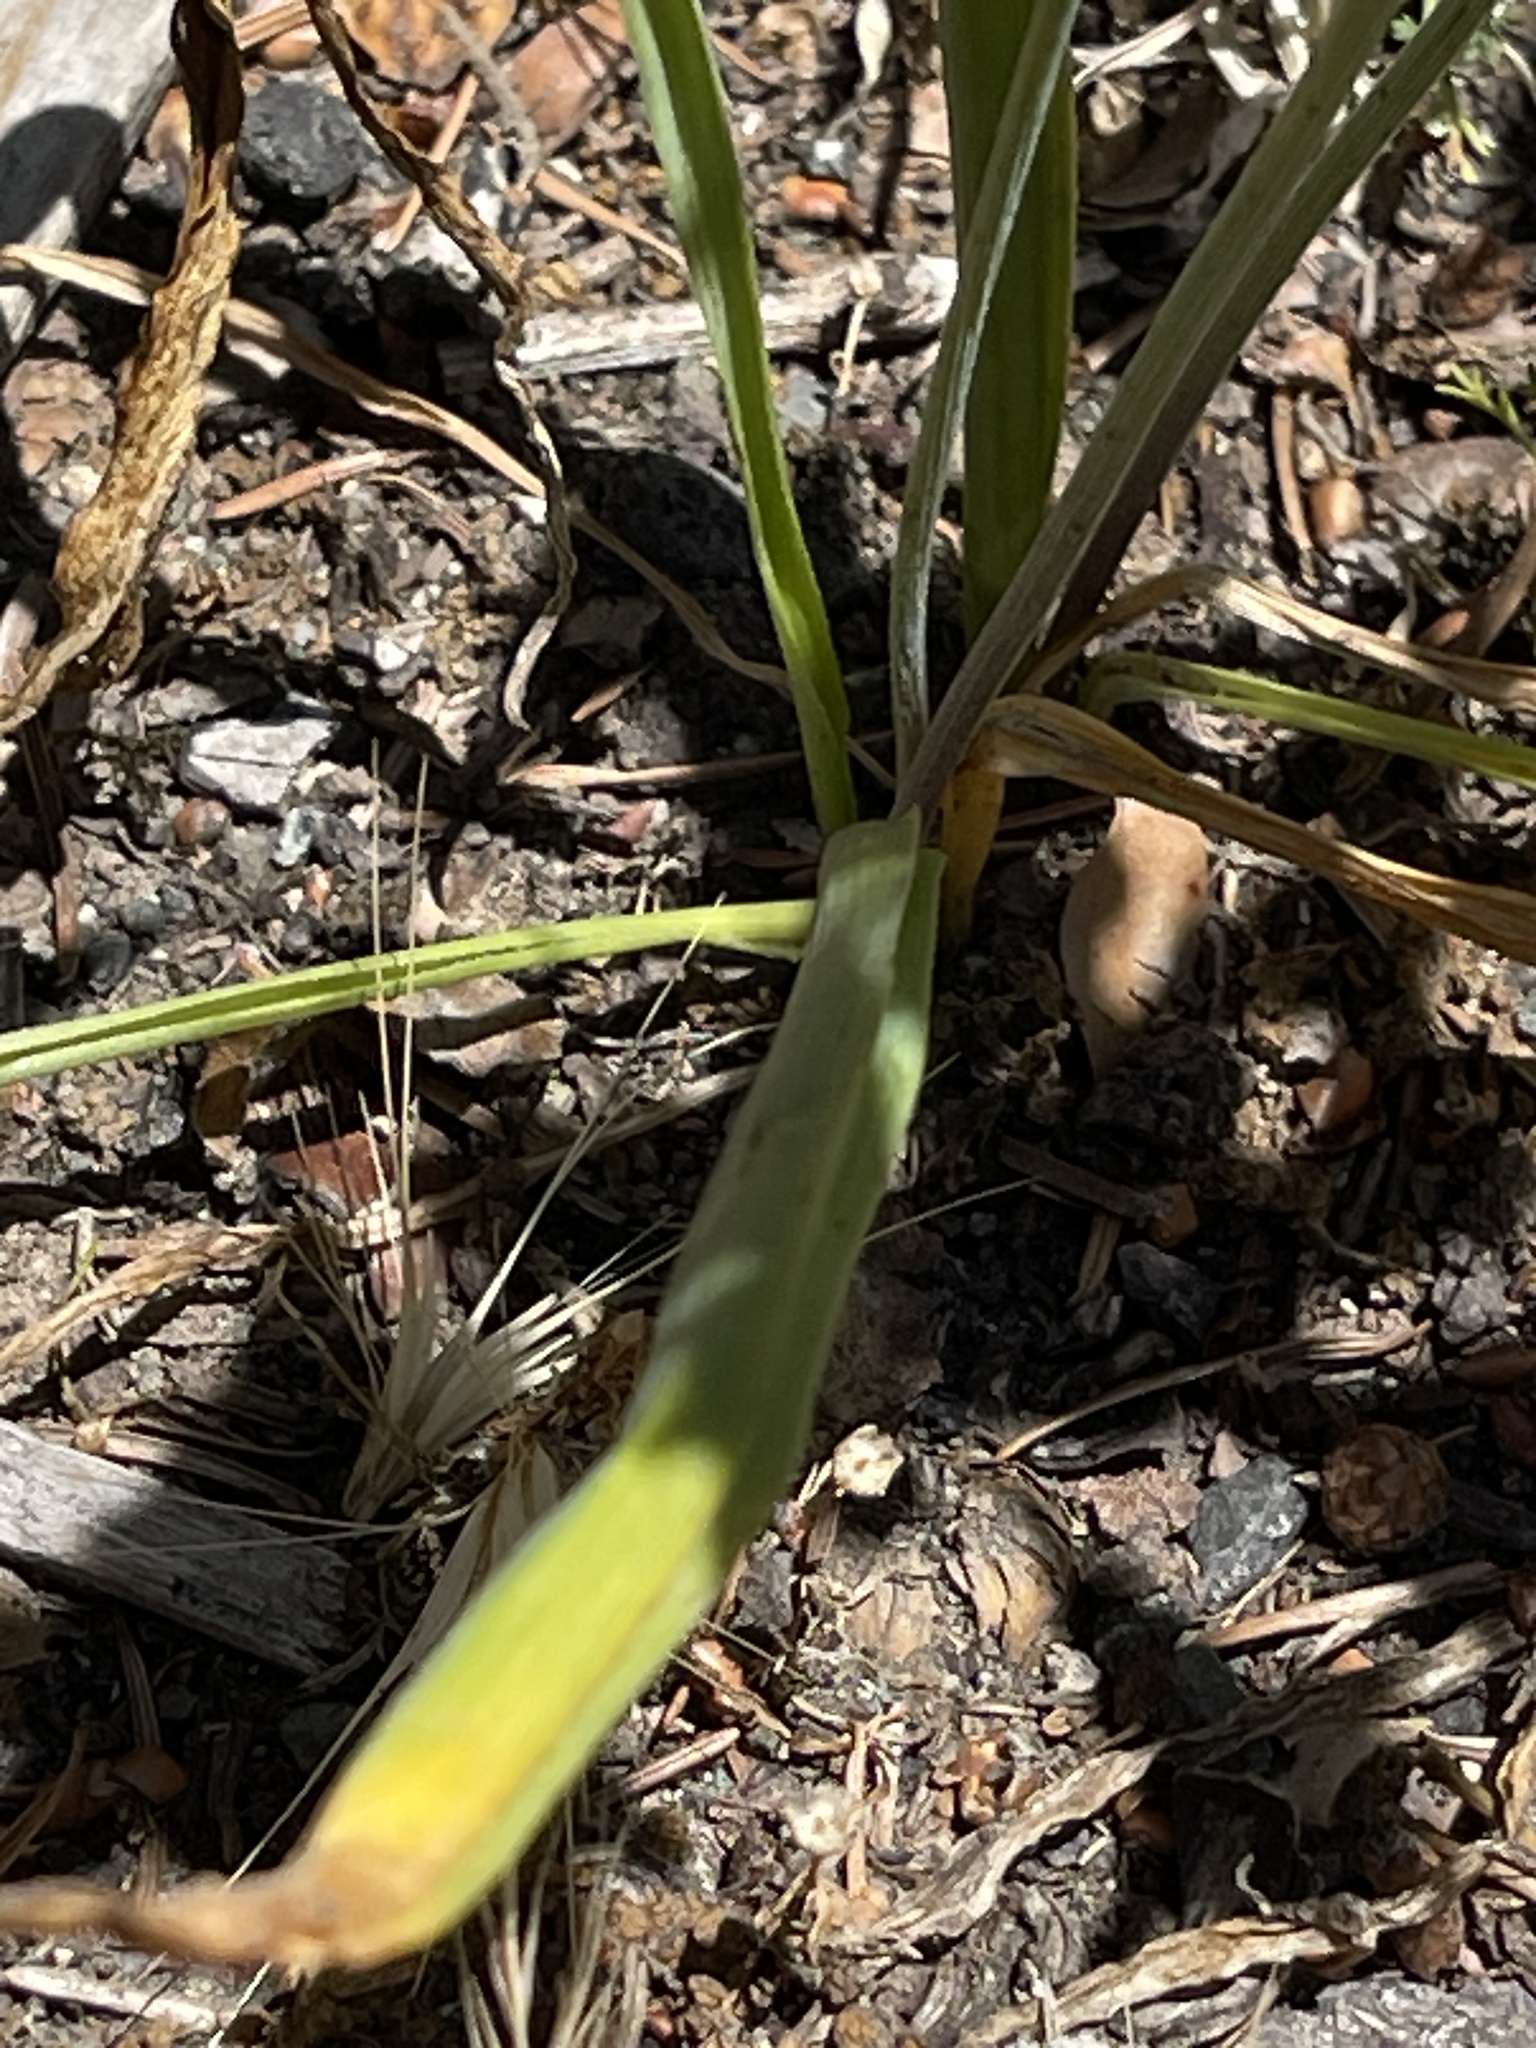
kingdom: Plantae
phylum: Tracheophyta
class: Liliopsida
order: Asparagales
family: Asparagaceae
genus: Triteleia
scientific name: Triteleia laxa
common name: Triplet-lily
